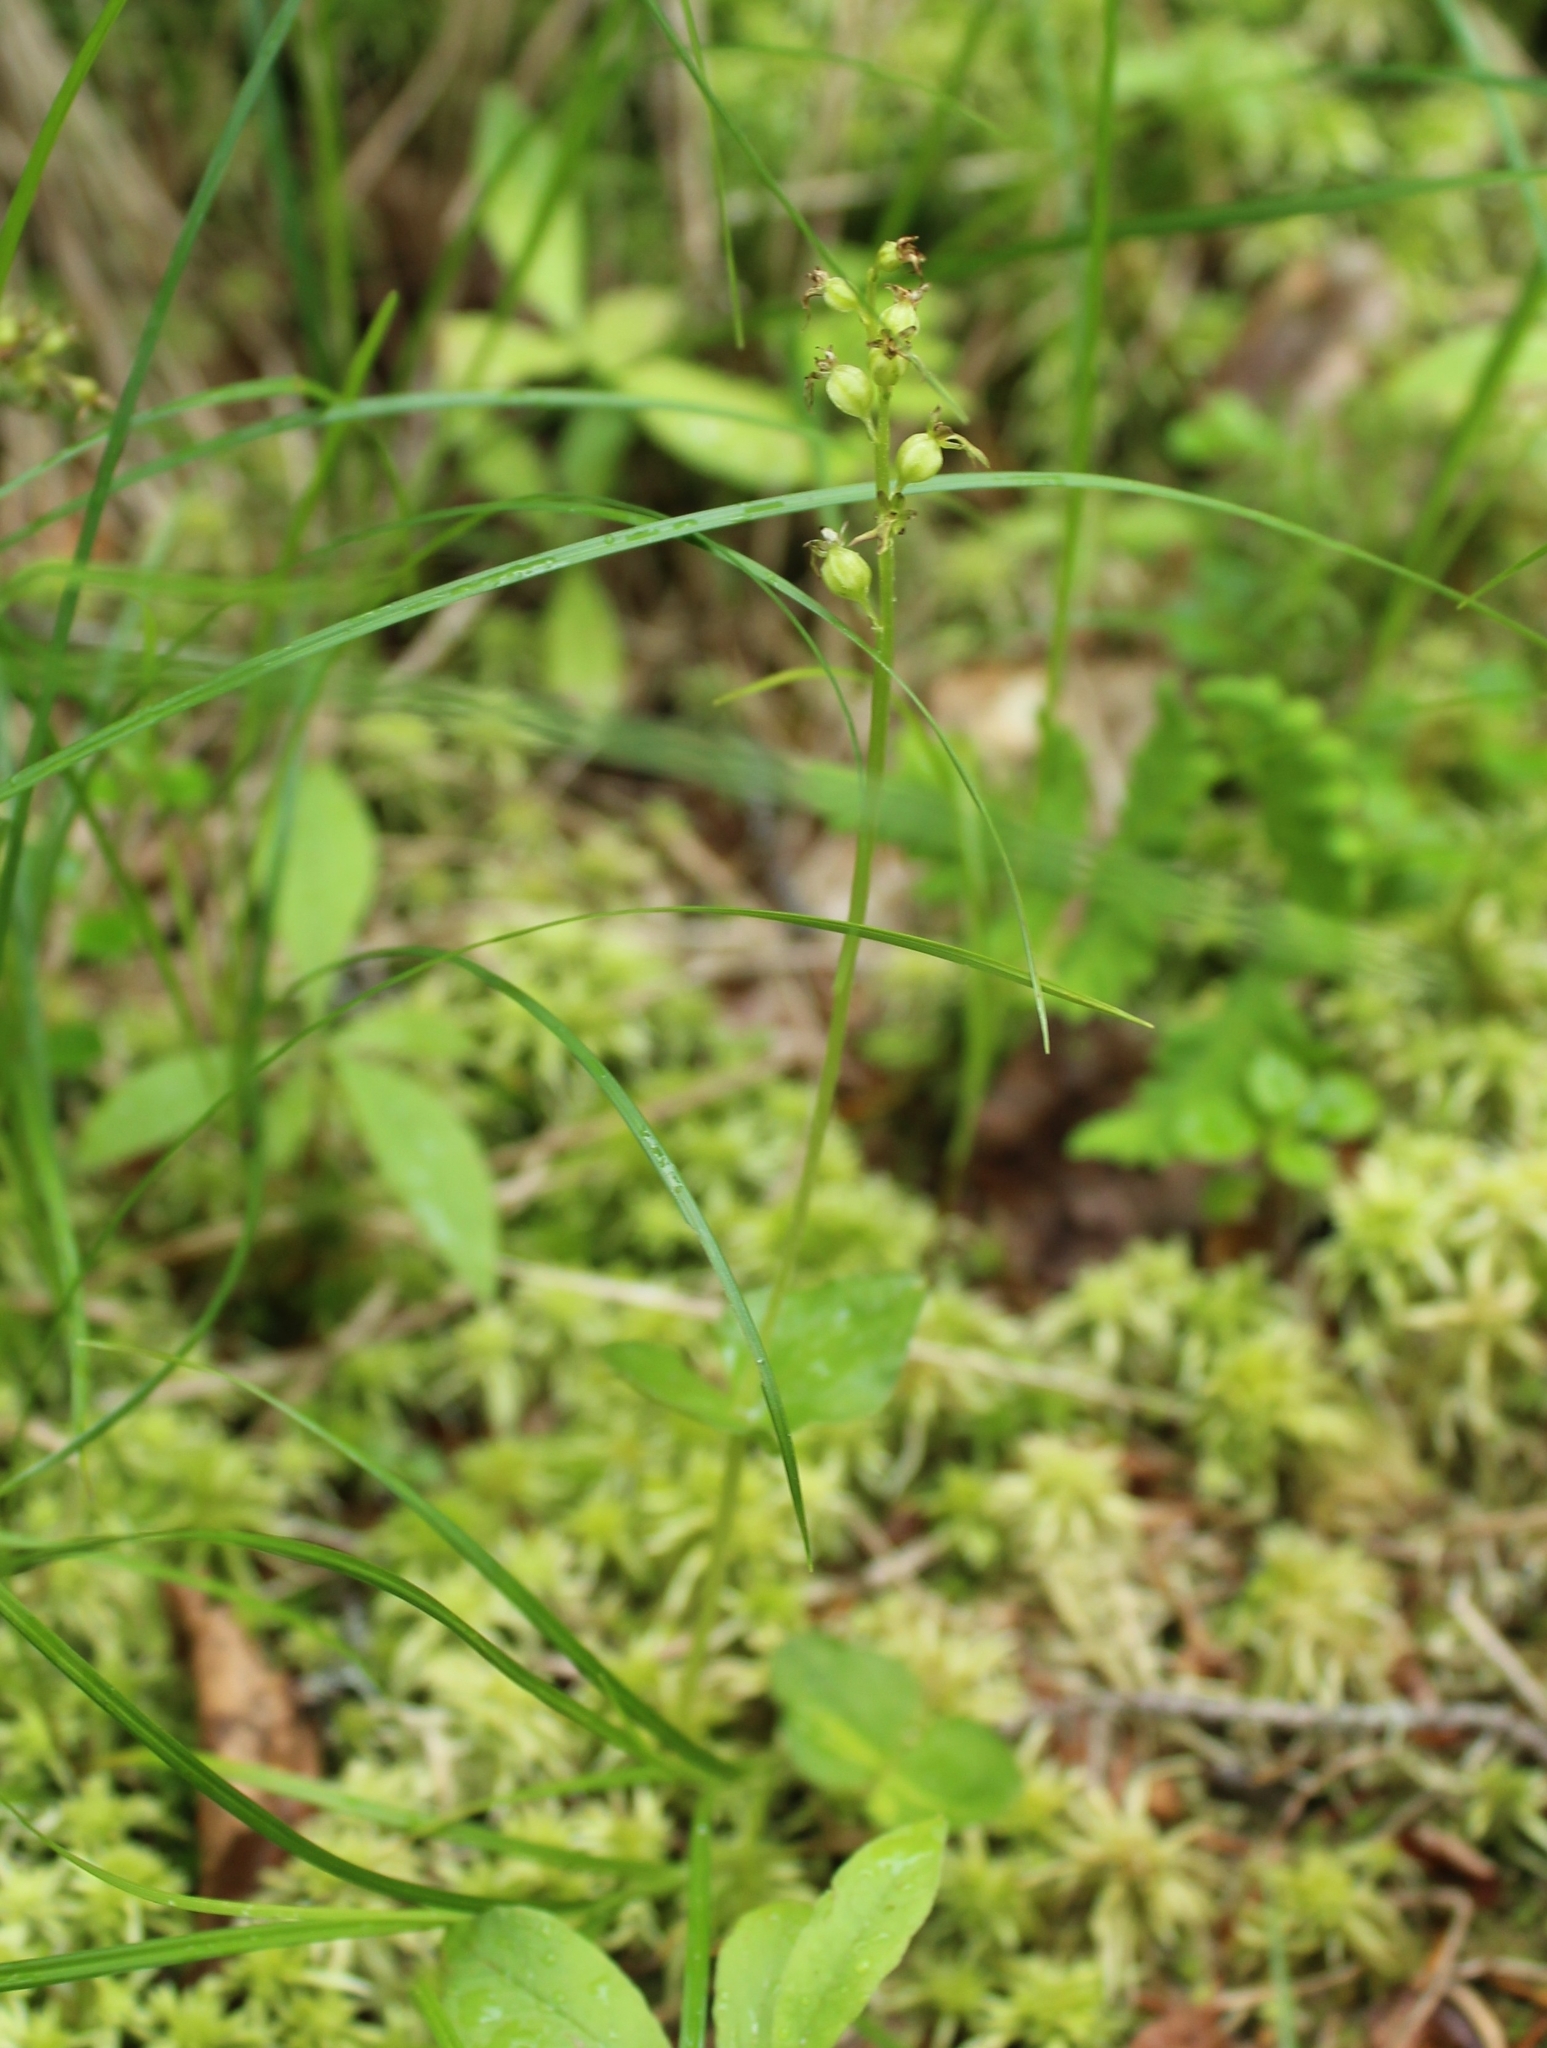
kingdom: Plantae
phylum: Tracheophyta
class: Liliopsida
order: Asparagales
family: Orchidaceae
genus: Neottia
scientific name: Neottia cordata
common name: Lesser twayblade
